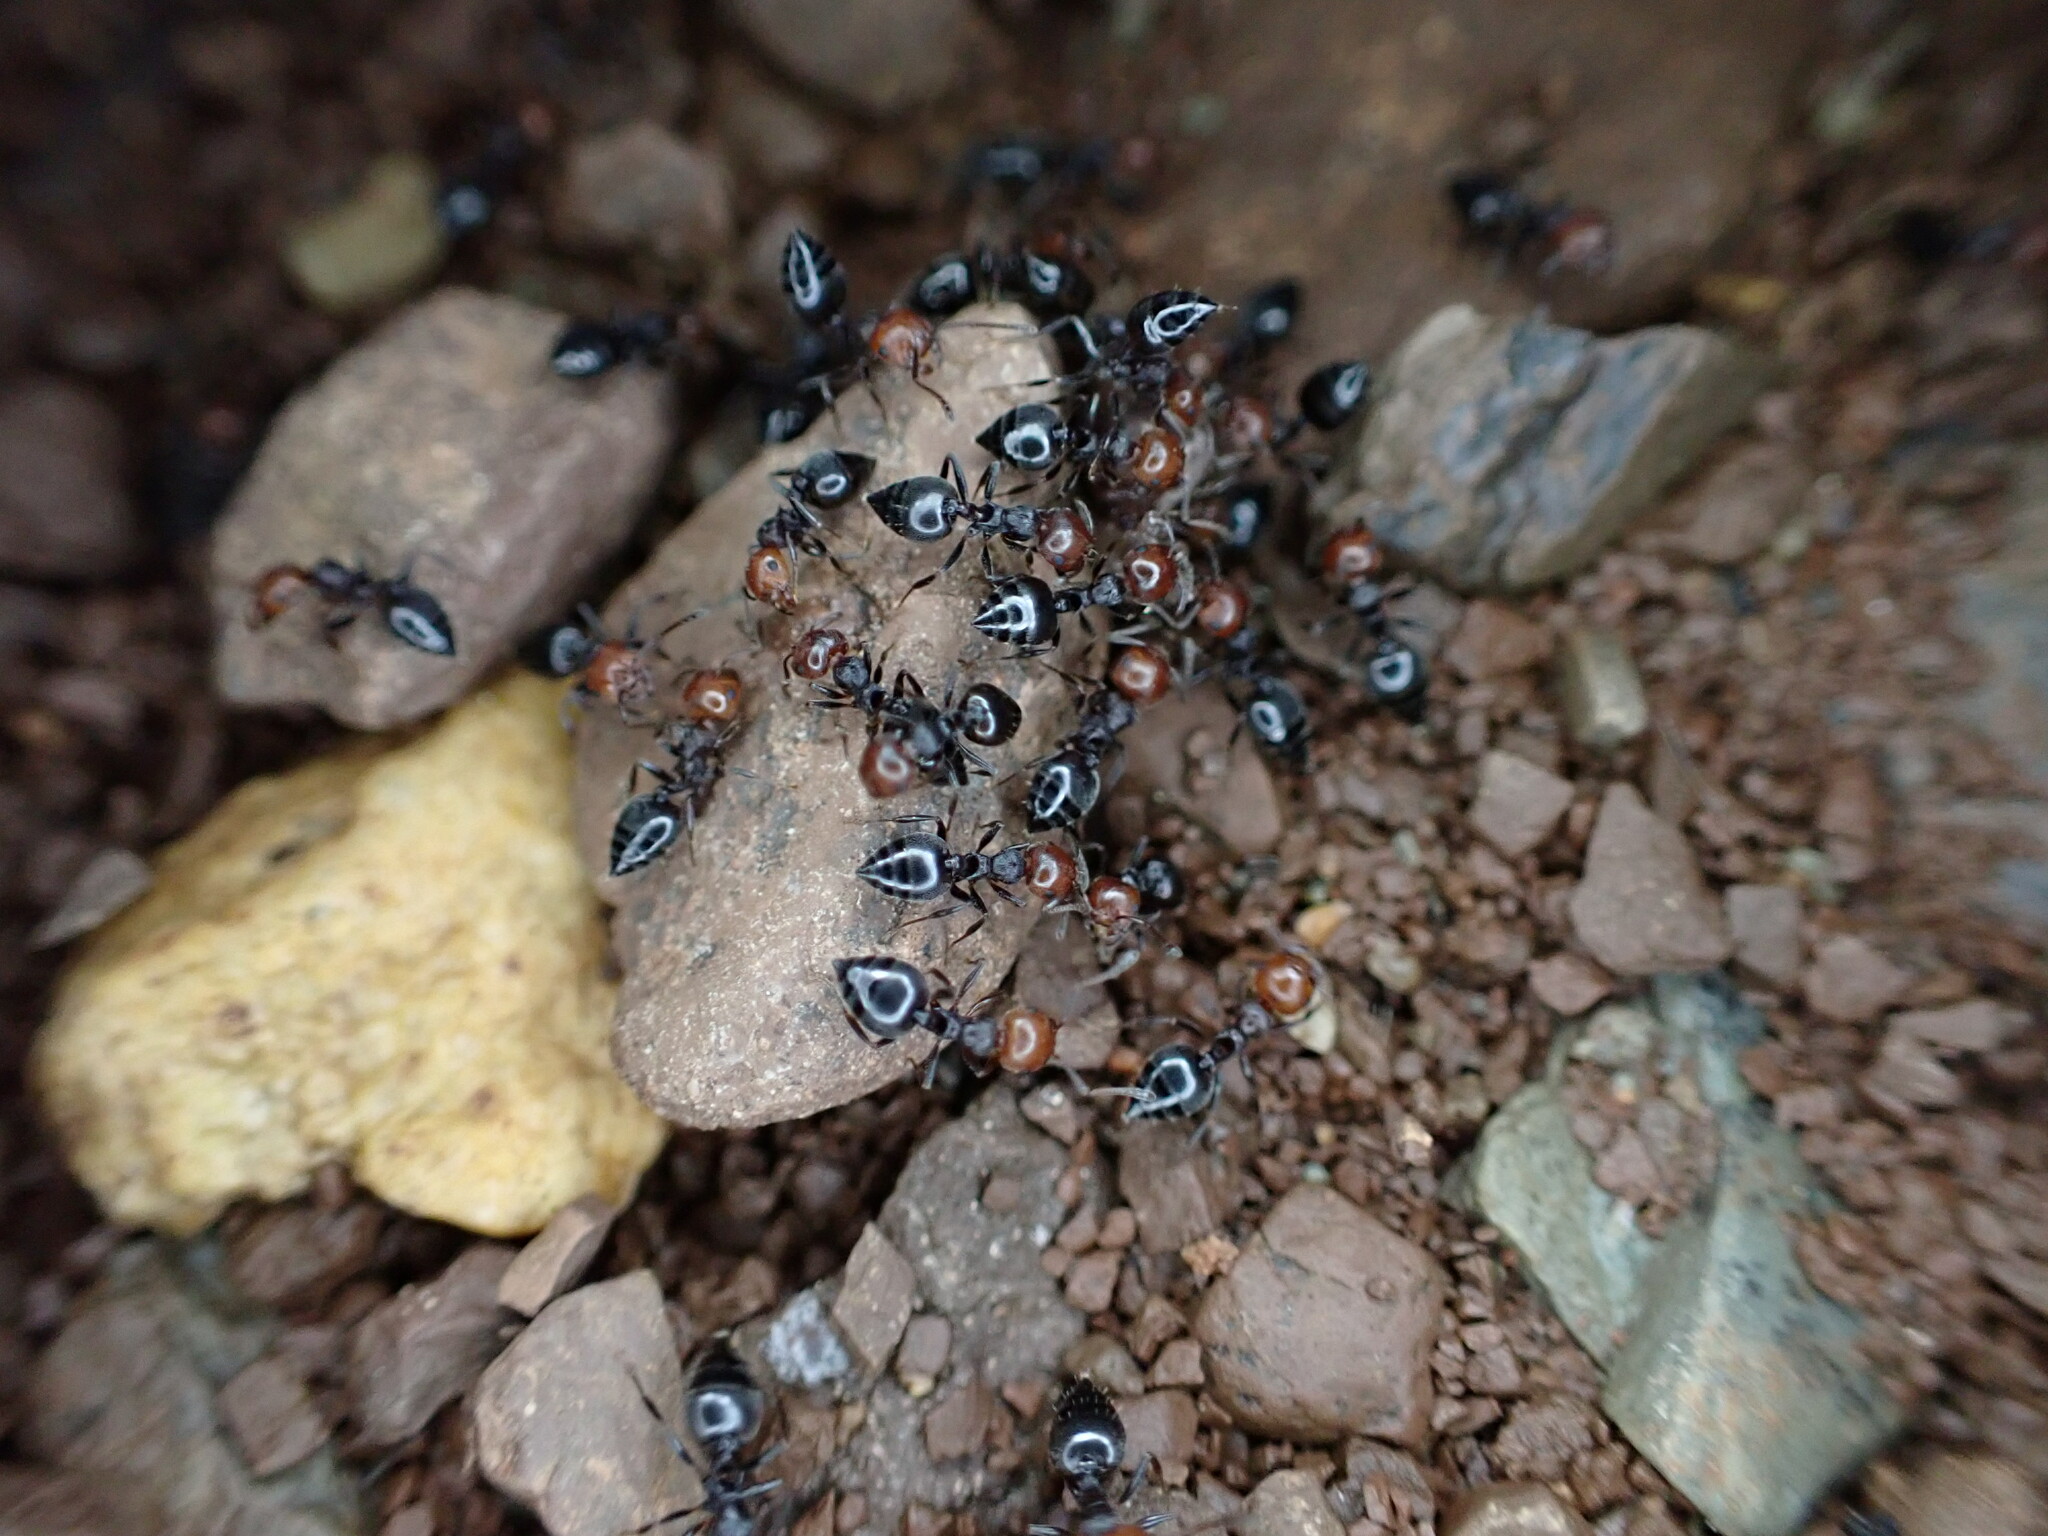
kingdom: Animalia
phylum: Arthropoda
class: Insecta
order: Hymenoptera
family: Formicidae
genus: Crematogaster
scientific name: Crematogaster scutellaris
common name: Fourmi du liège
